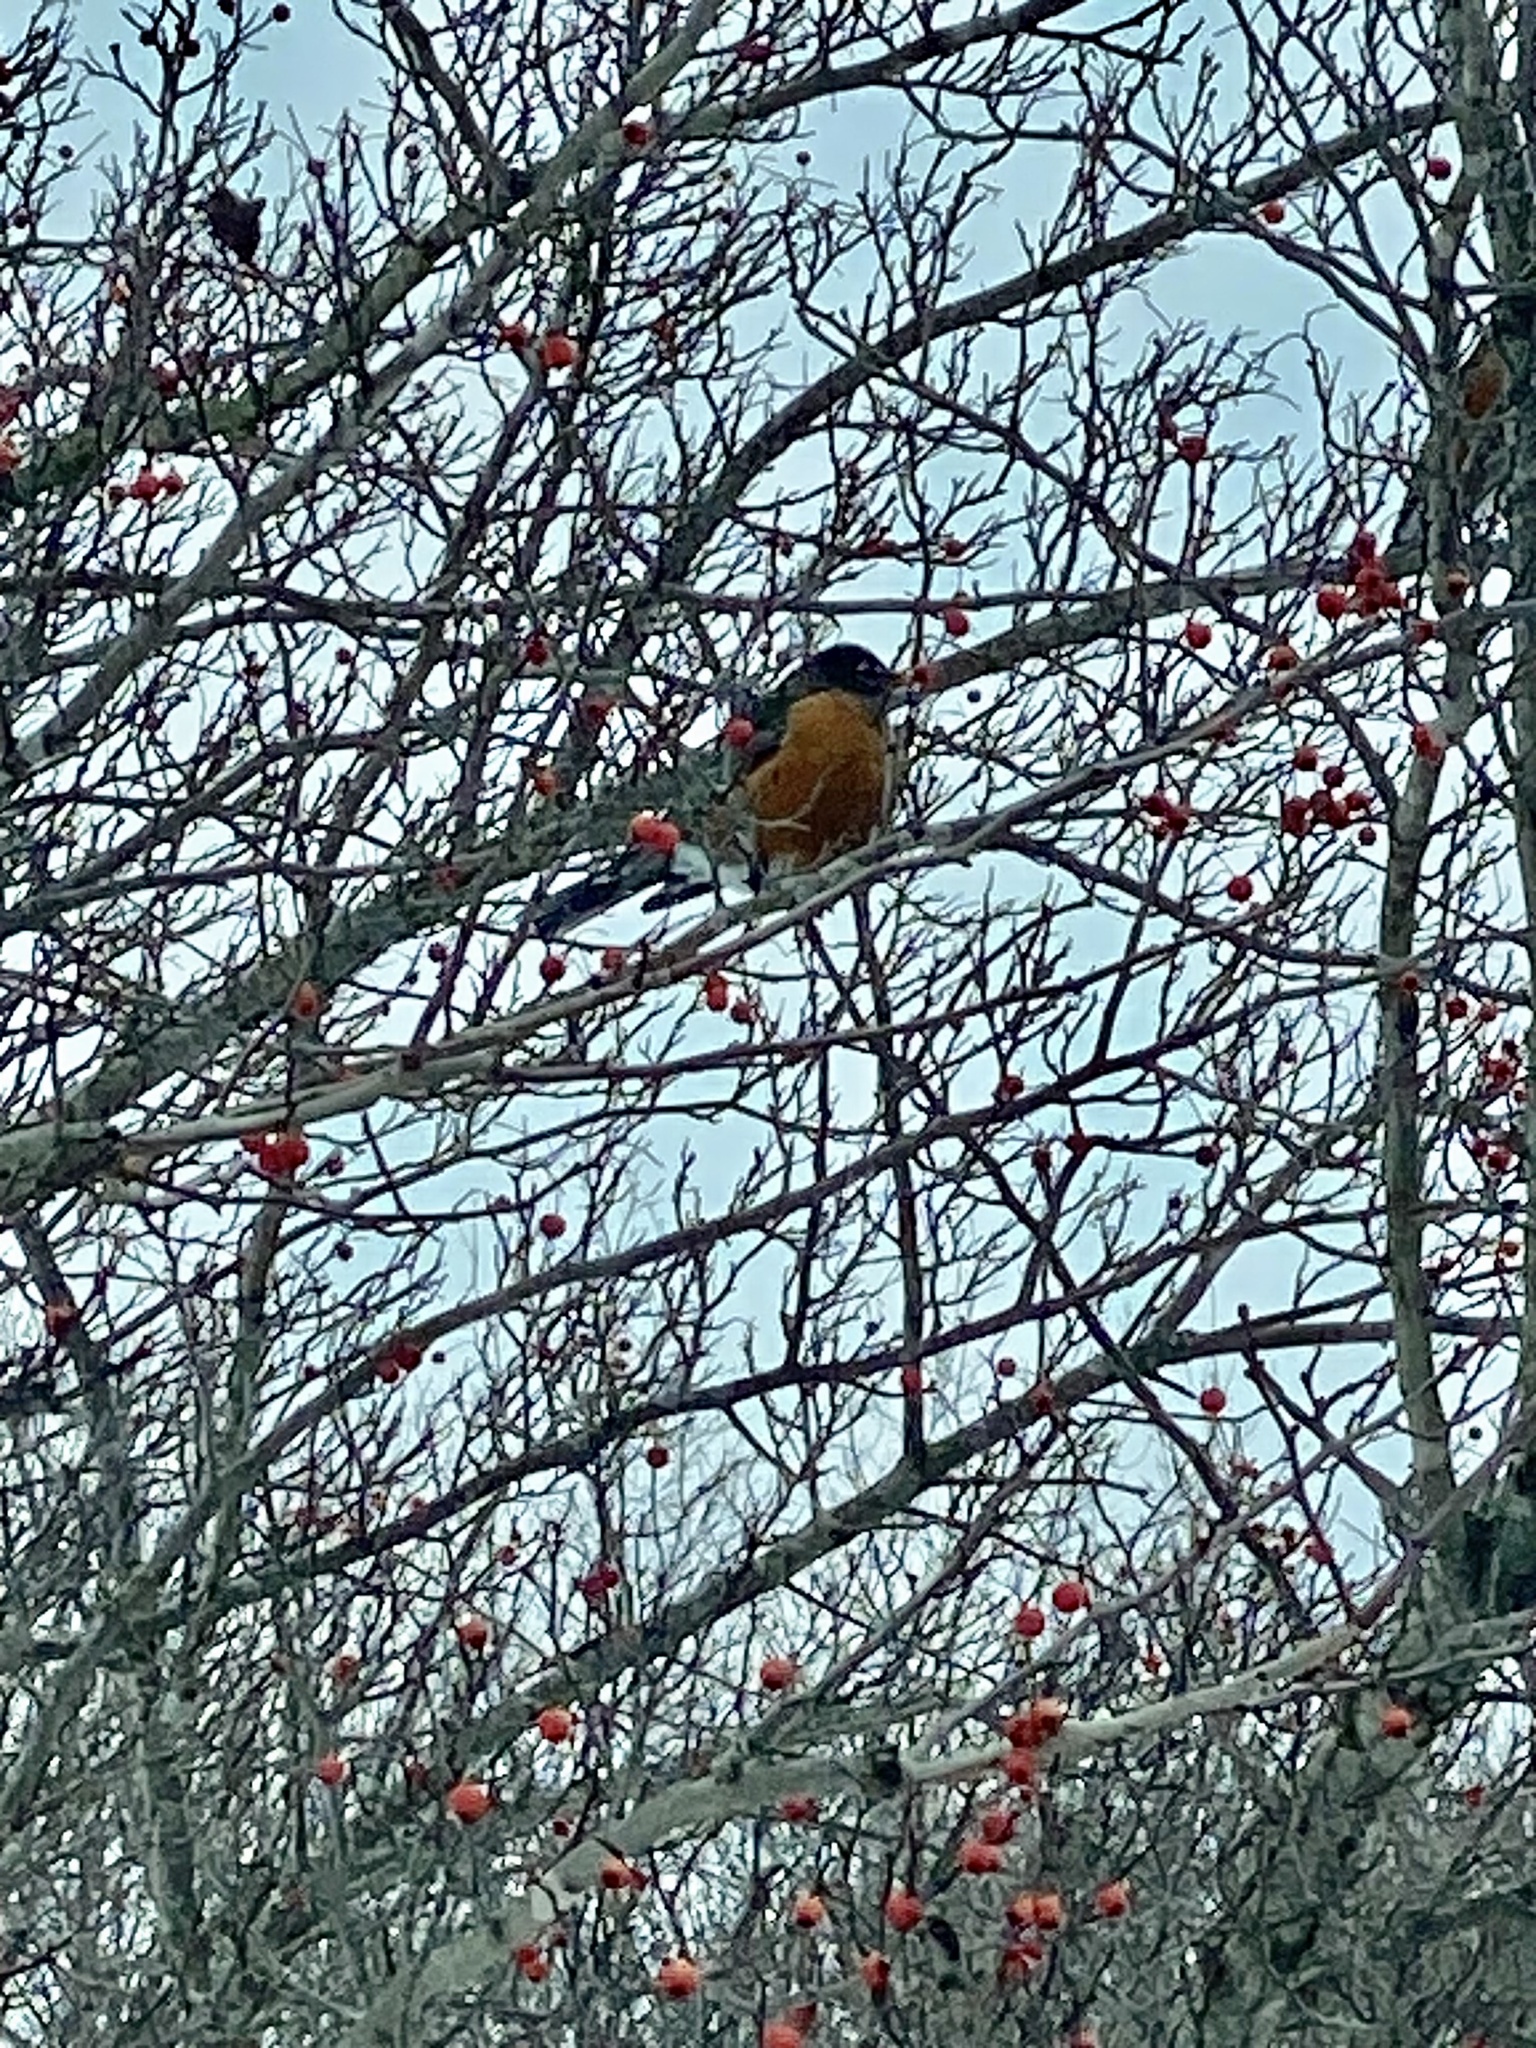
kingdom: Animalia
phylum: Chordata
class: Aves
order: Passeriformes
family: Turdidae
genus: Turdus
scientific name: Turdus migratorius
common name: American robin
